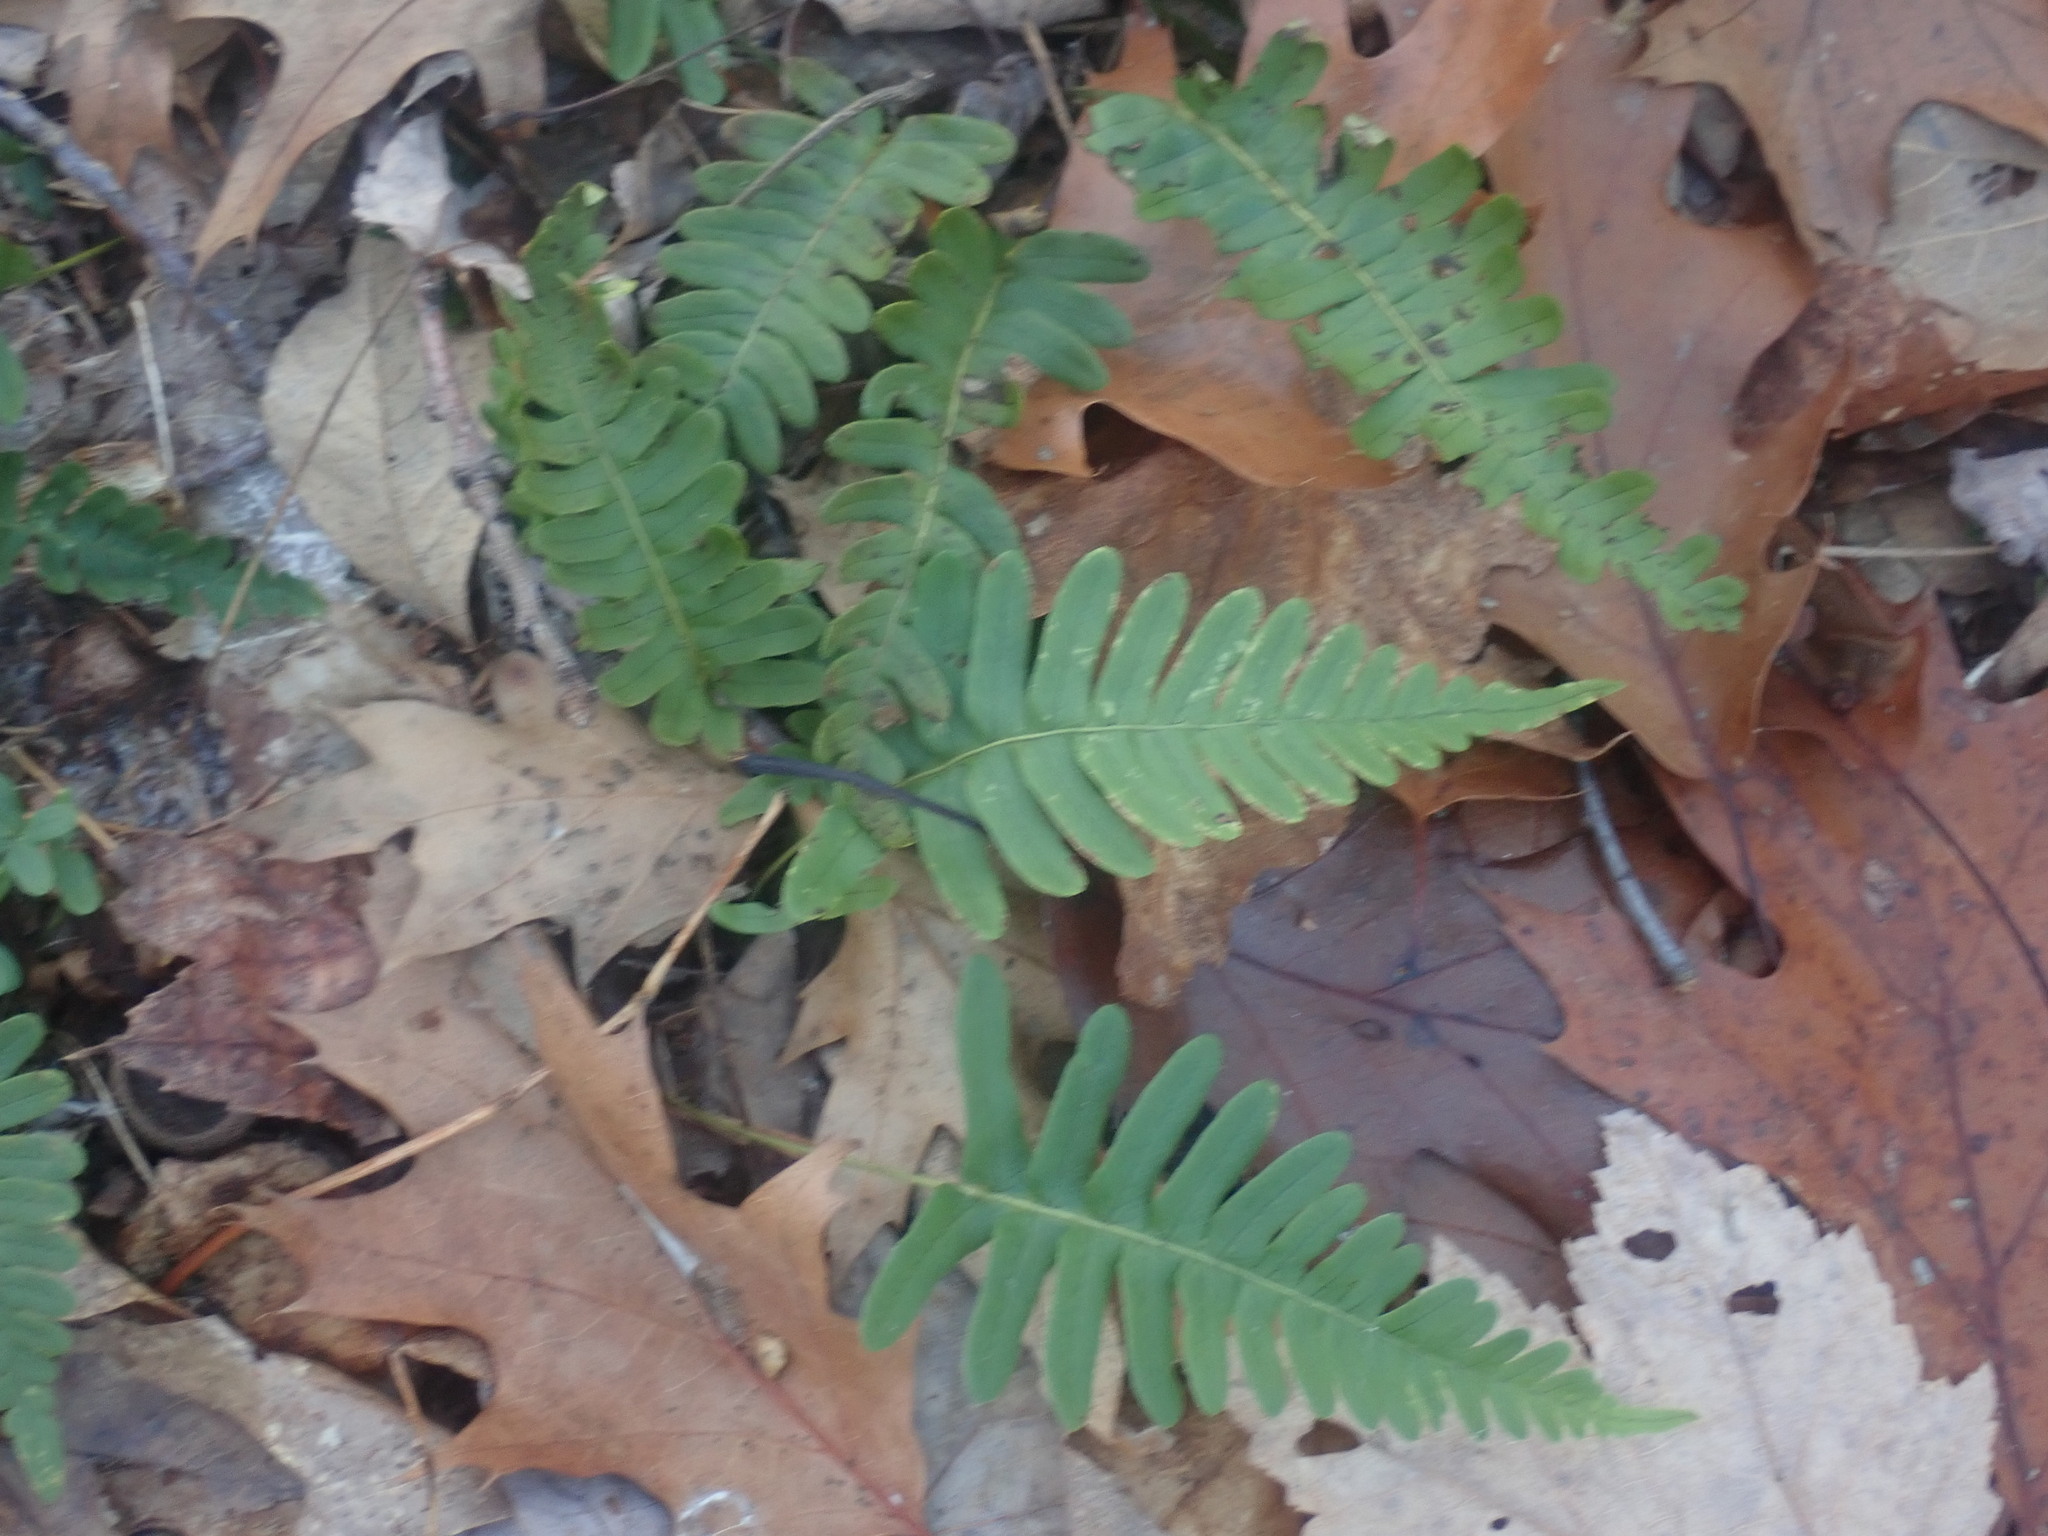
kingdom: Plantae
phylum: Tracheophyta
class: Polypodiopsida
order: Polypodiales
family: Polypodiaceae
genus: Polypodium
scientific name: Polypodium appalachianum
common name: Appalachian polypody
